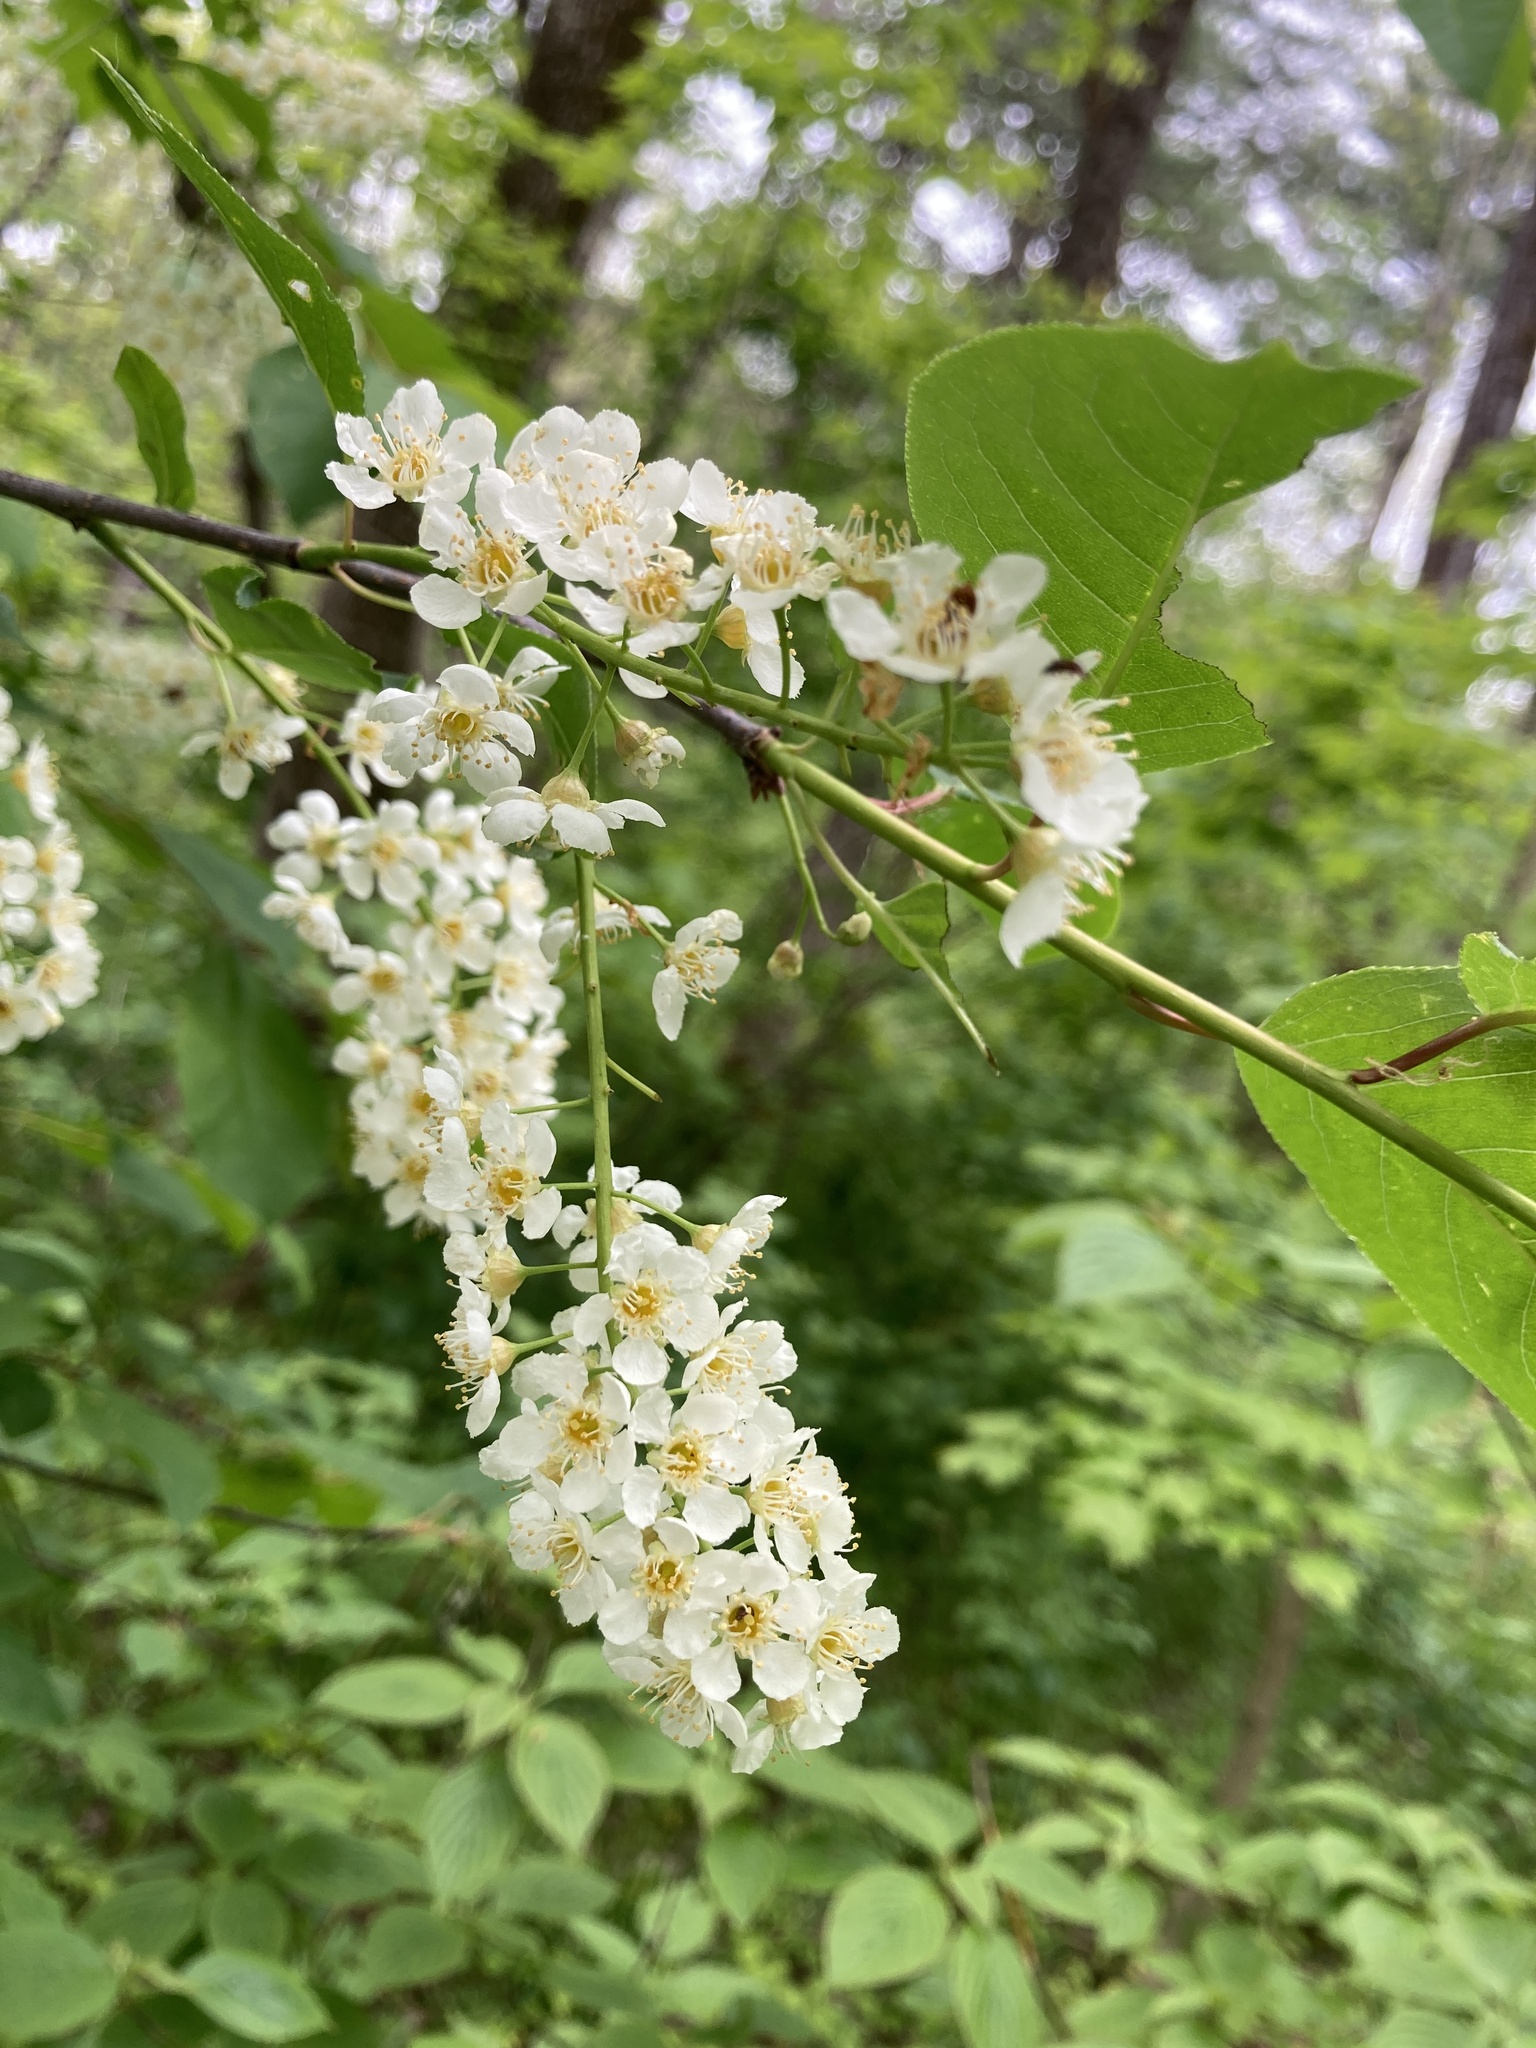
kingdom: Plantae
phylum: Tracheophyta
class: Magnoliopsida
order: Rosales
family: Rosaceae
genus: Prunus
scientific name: Prunus virginiana
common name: Chokecherry
